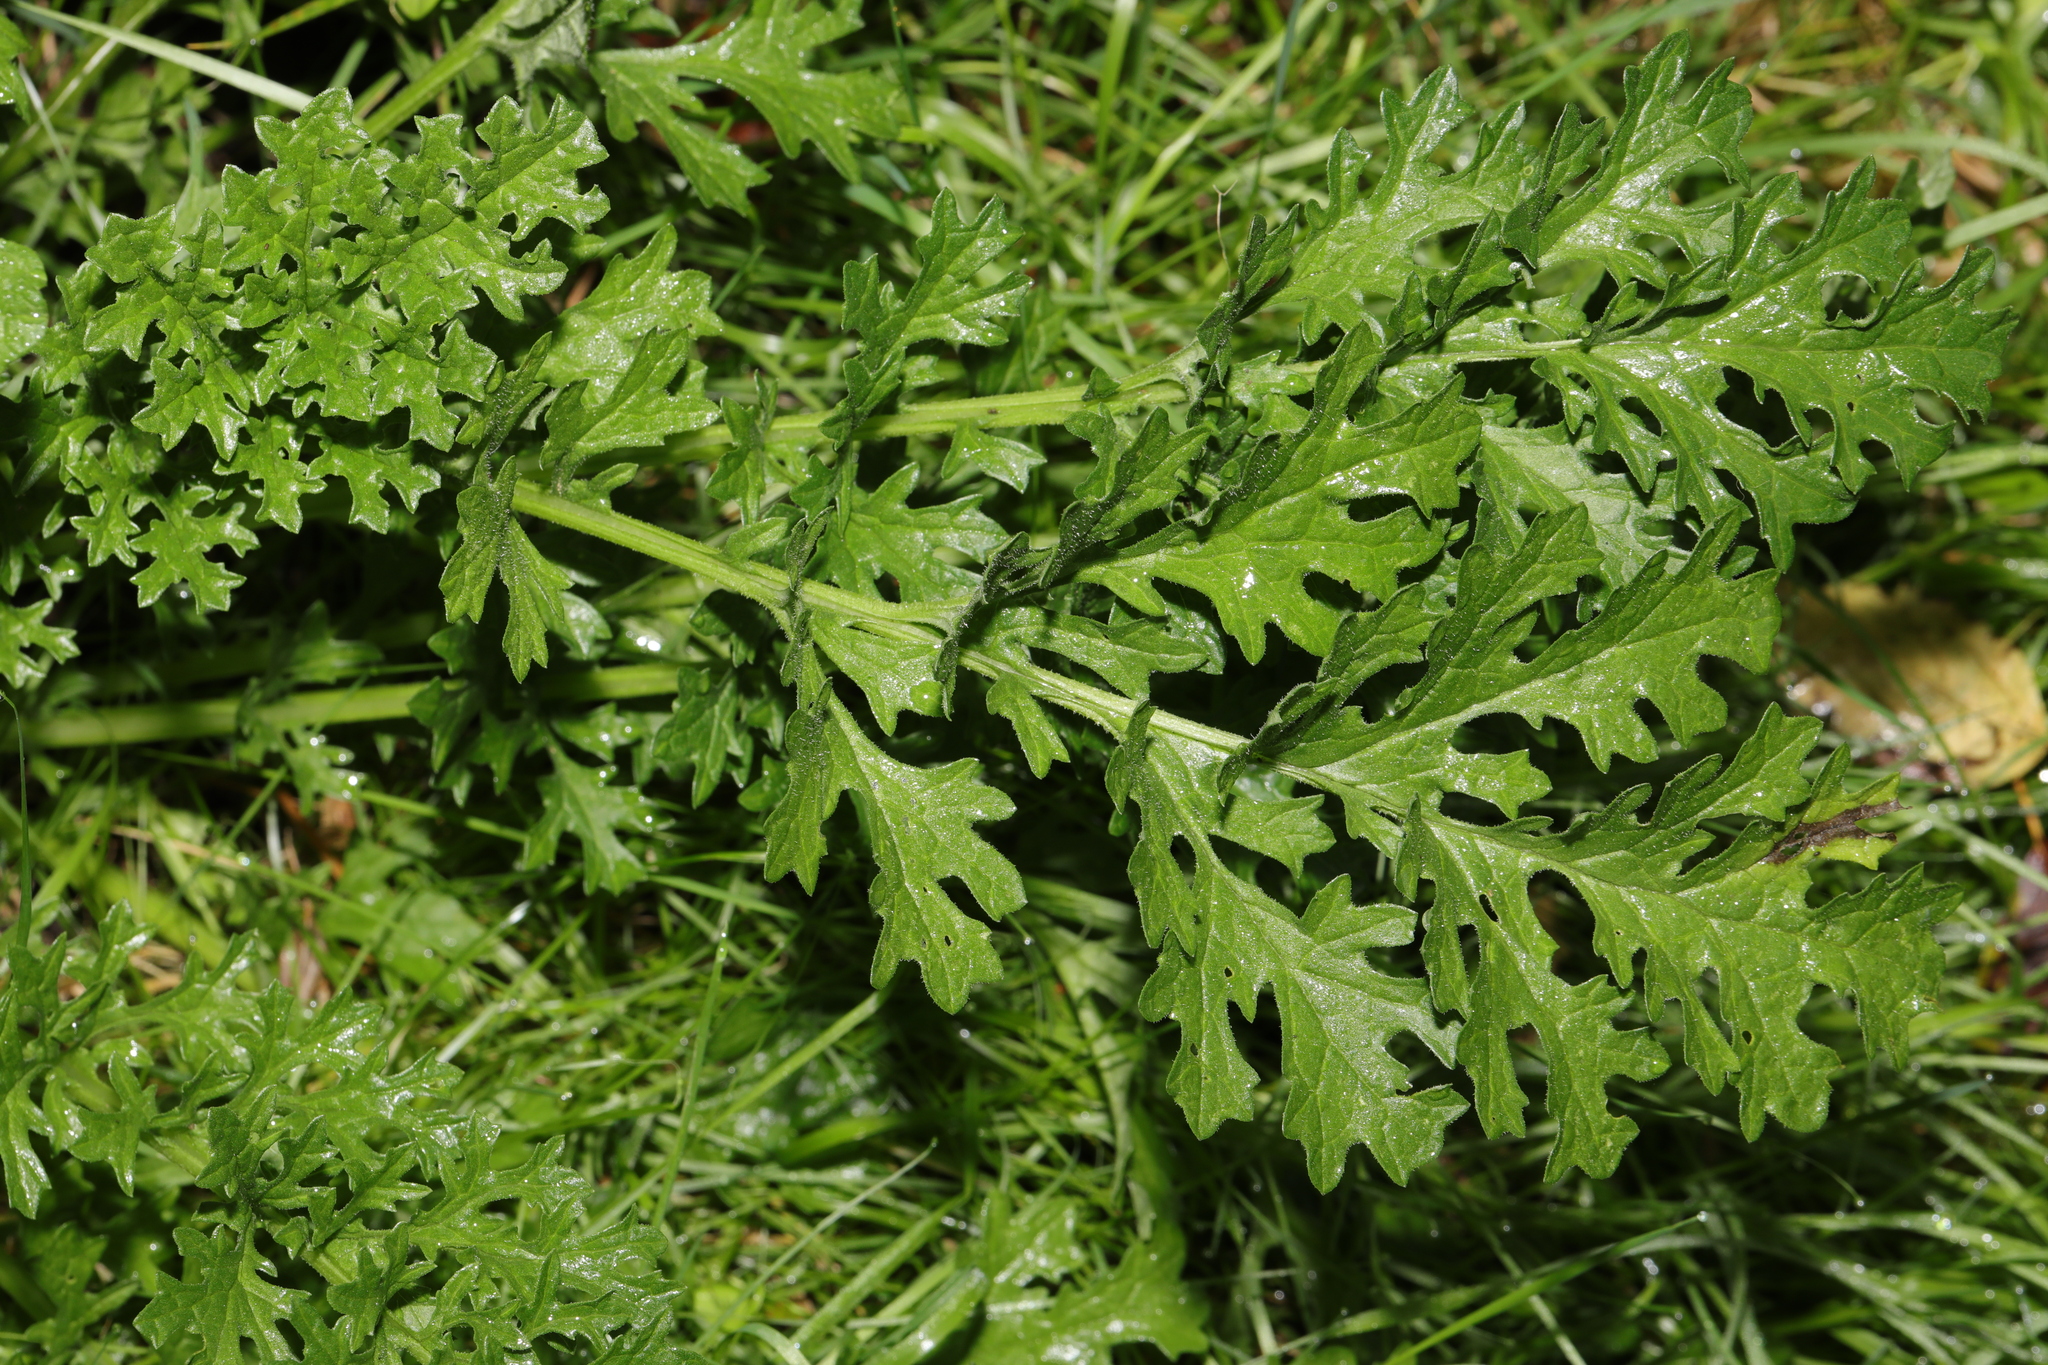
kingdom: Plantae
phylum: Tracheophyta
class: Magnoliopsida
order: Asterales
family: Asteraceae
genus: Jacobaea
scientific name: Jacobaea vulgaris
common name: Stinking willie
